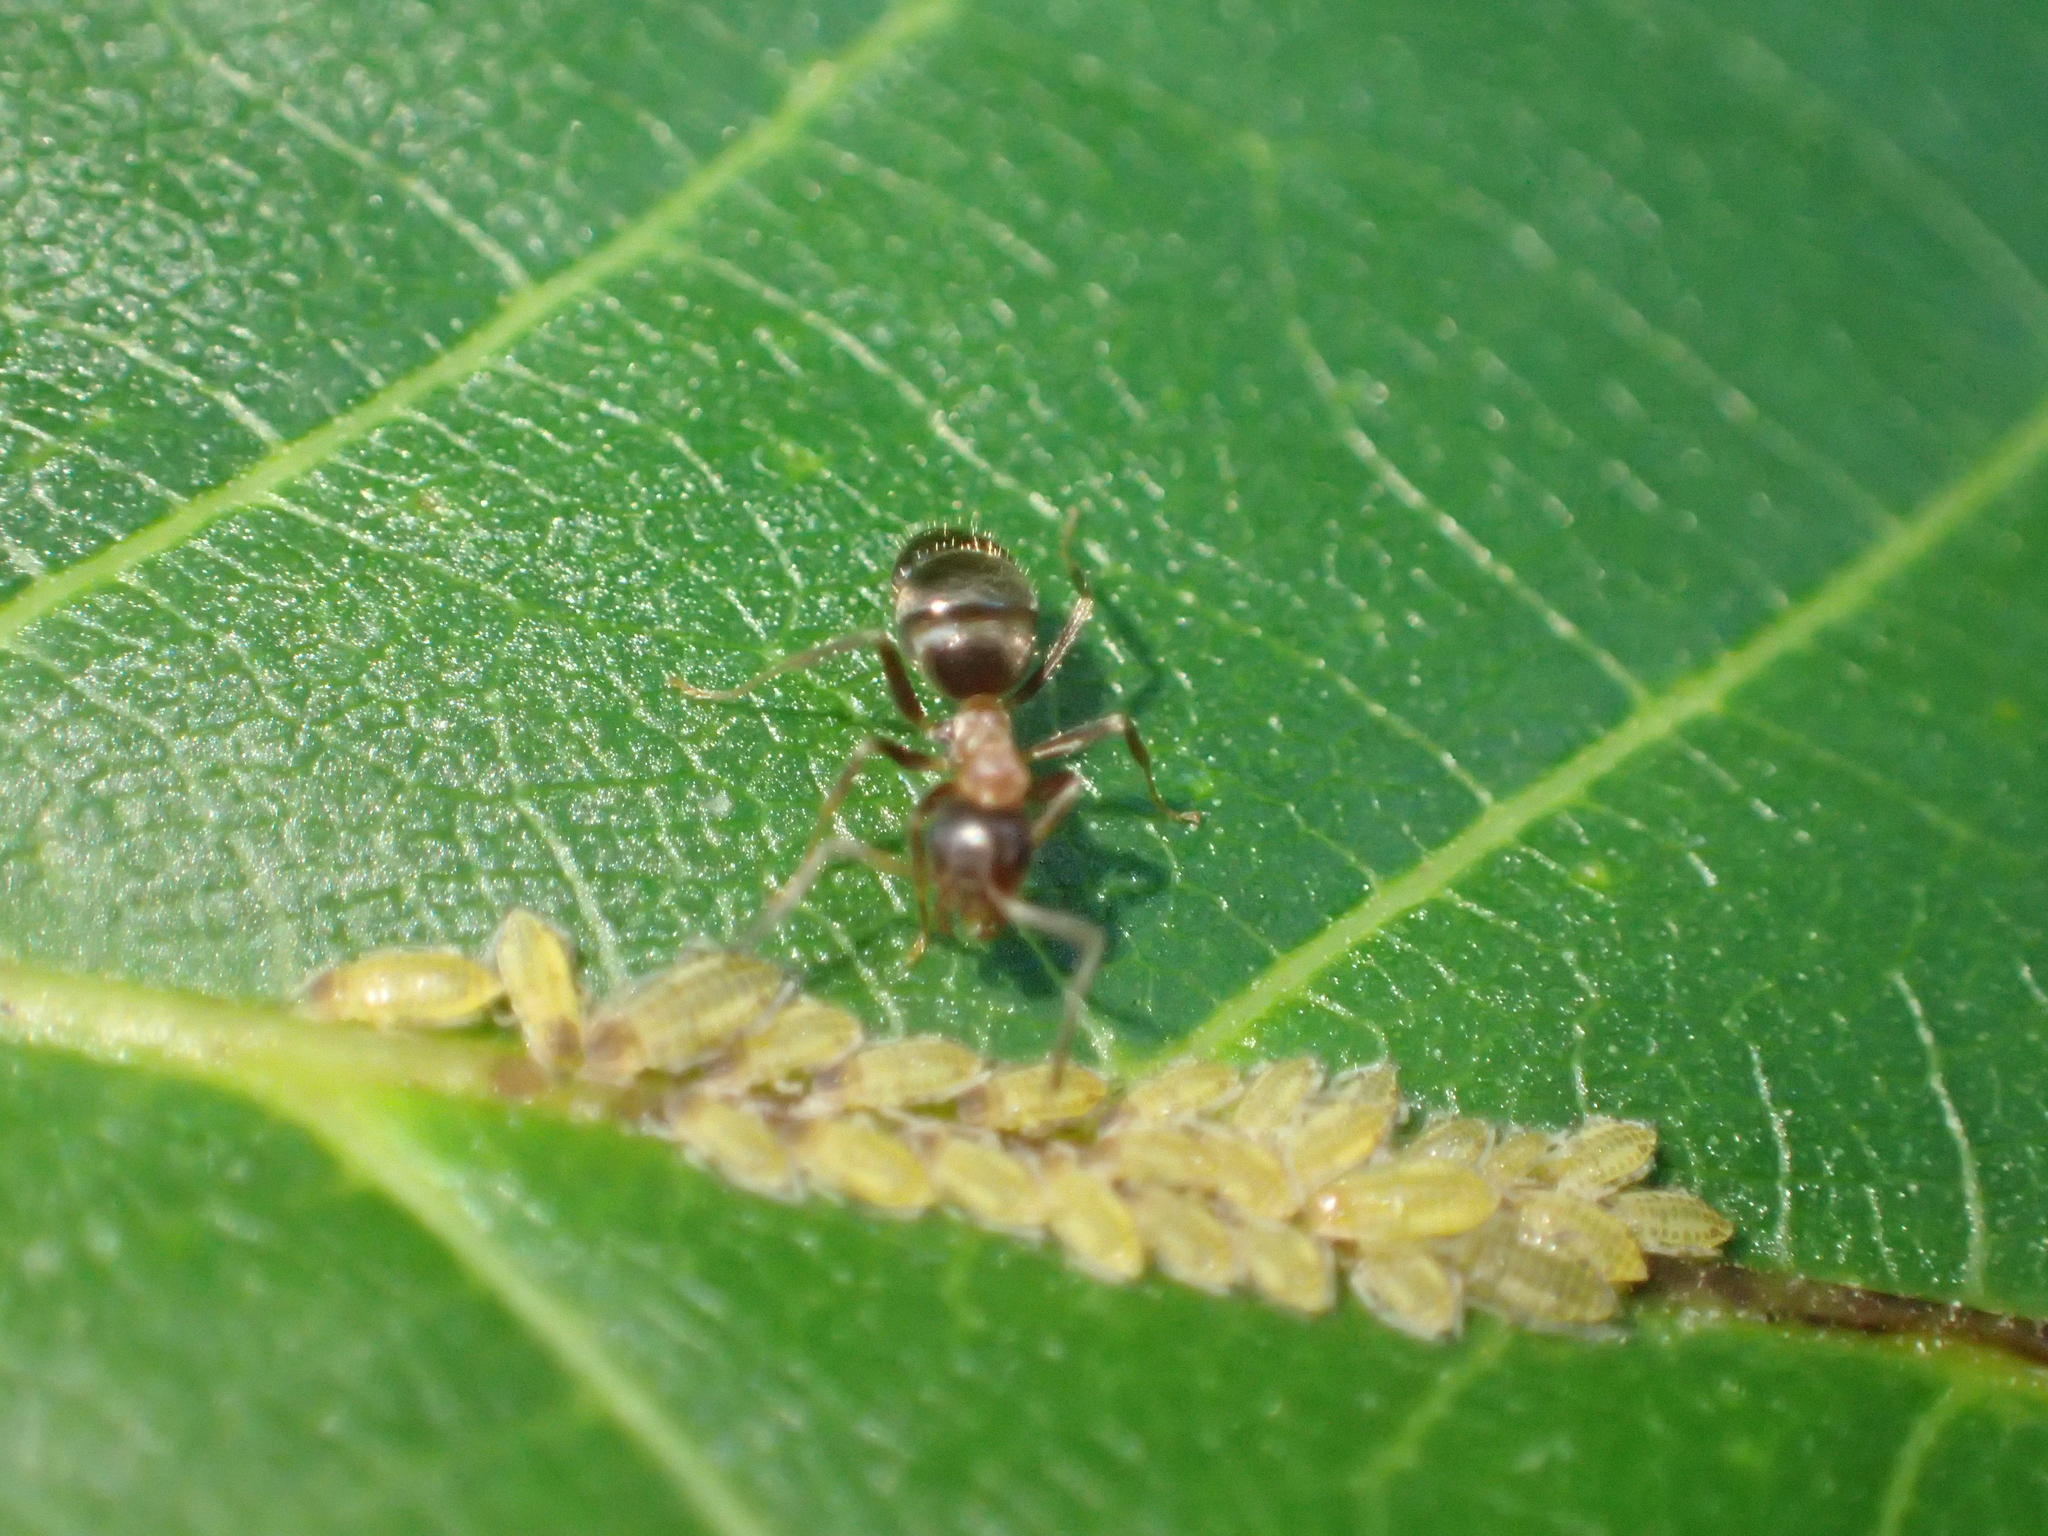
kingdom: Animalia
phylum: Arthropoda
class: Insecta
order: Hymenoptera
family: Formicidae
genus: Lasius
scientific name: Lasius emarginatus
